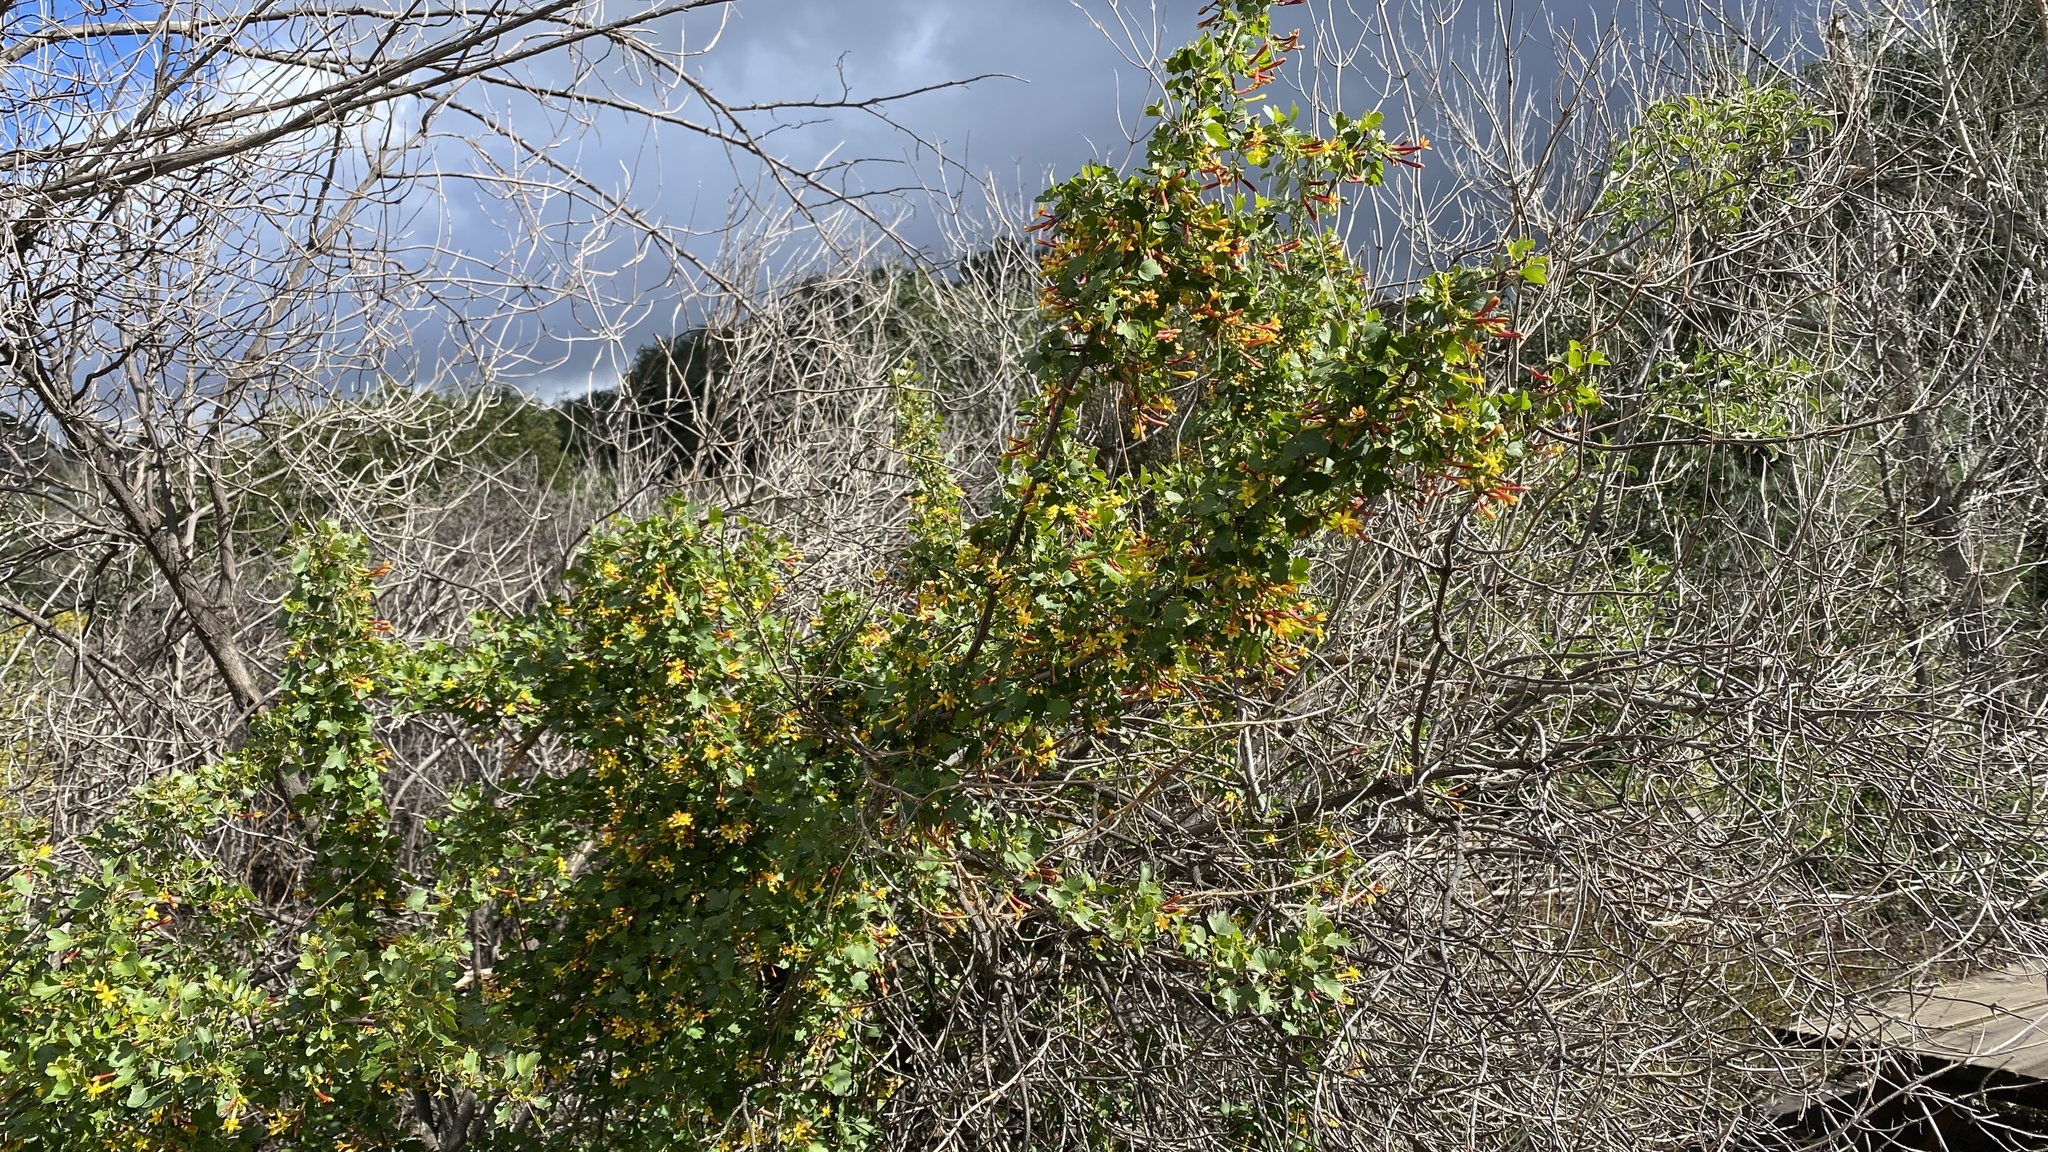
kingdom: Plantae
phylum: Tracheophyta
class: Magnoliopsida
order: Saxifragales
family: Grossulariaceae
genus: Ribes
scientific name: Ribes aureum
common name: Golden currant
